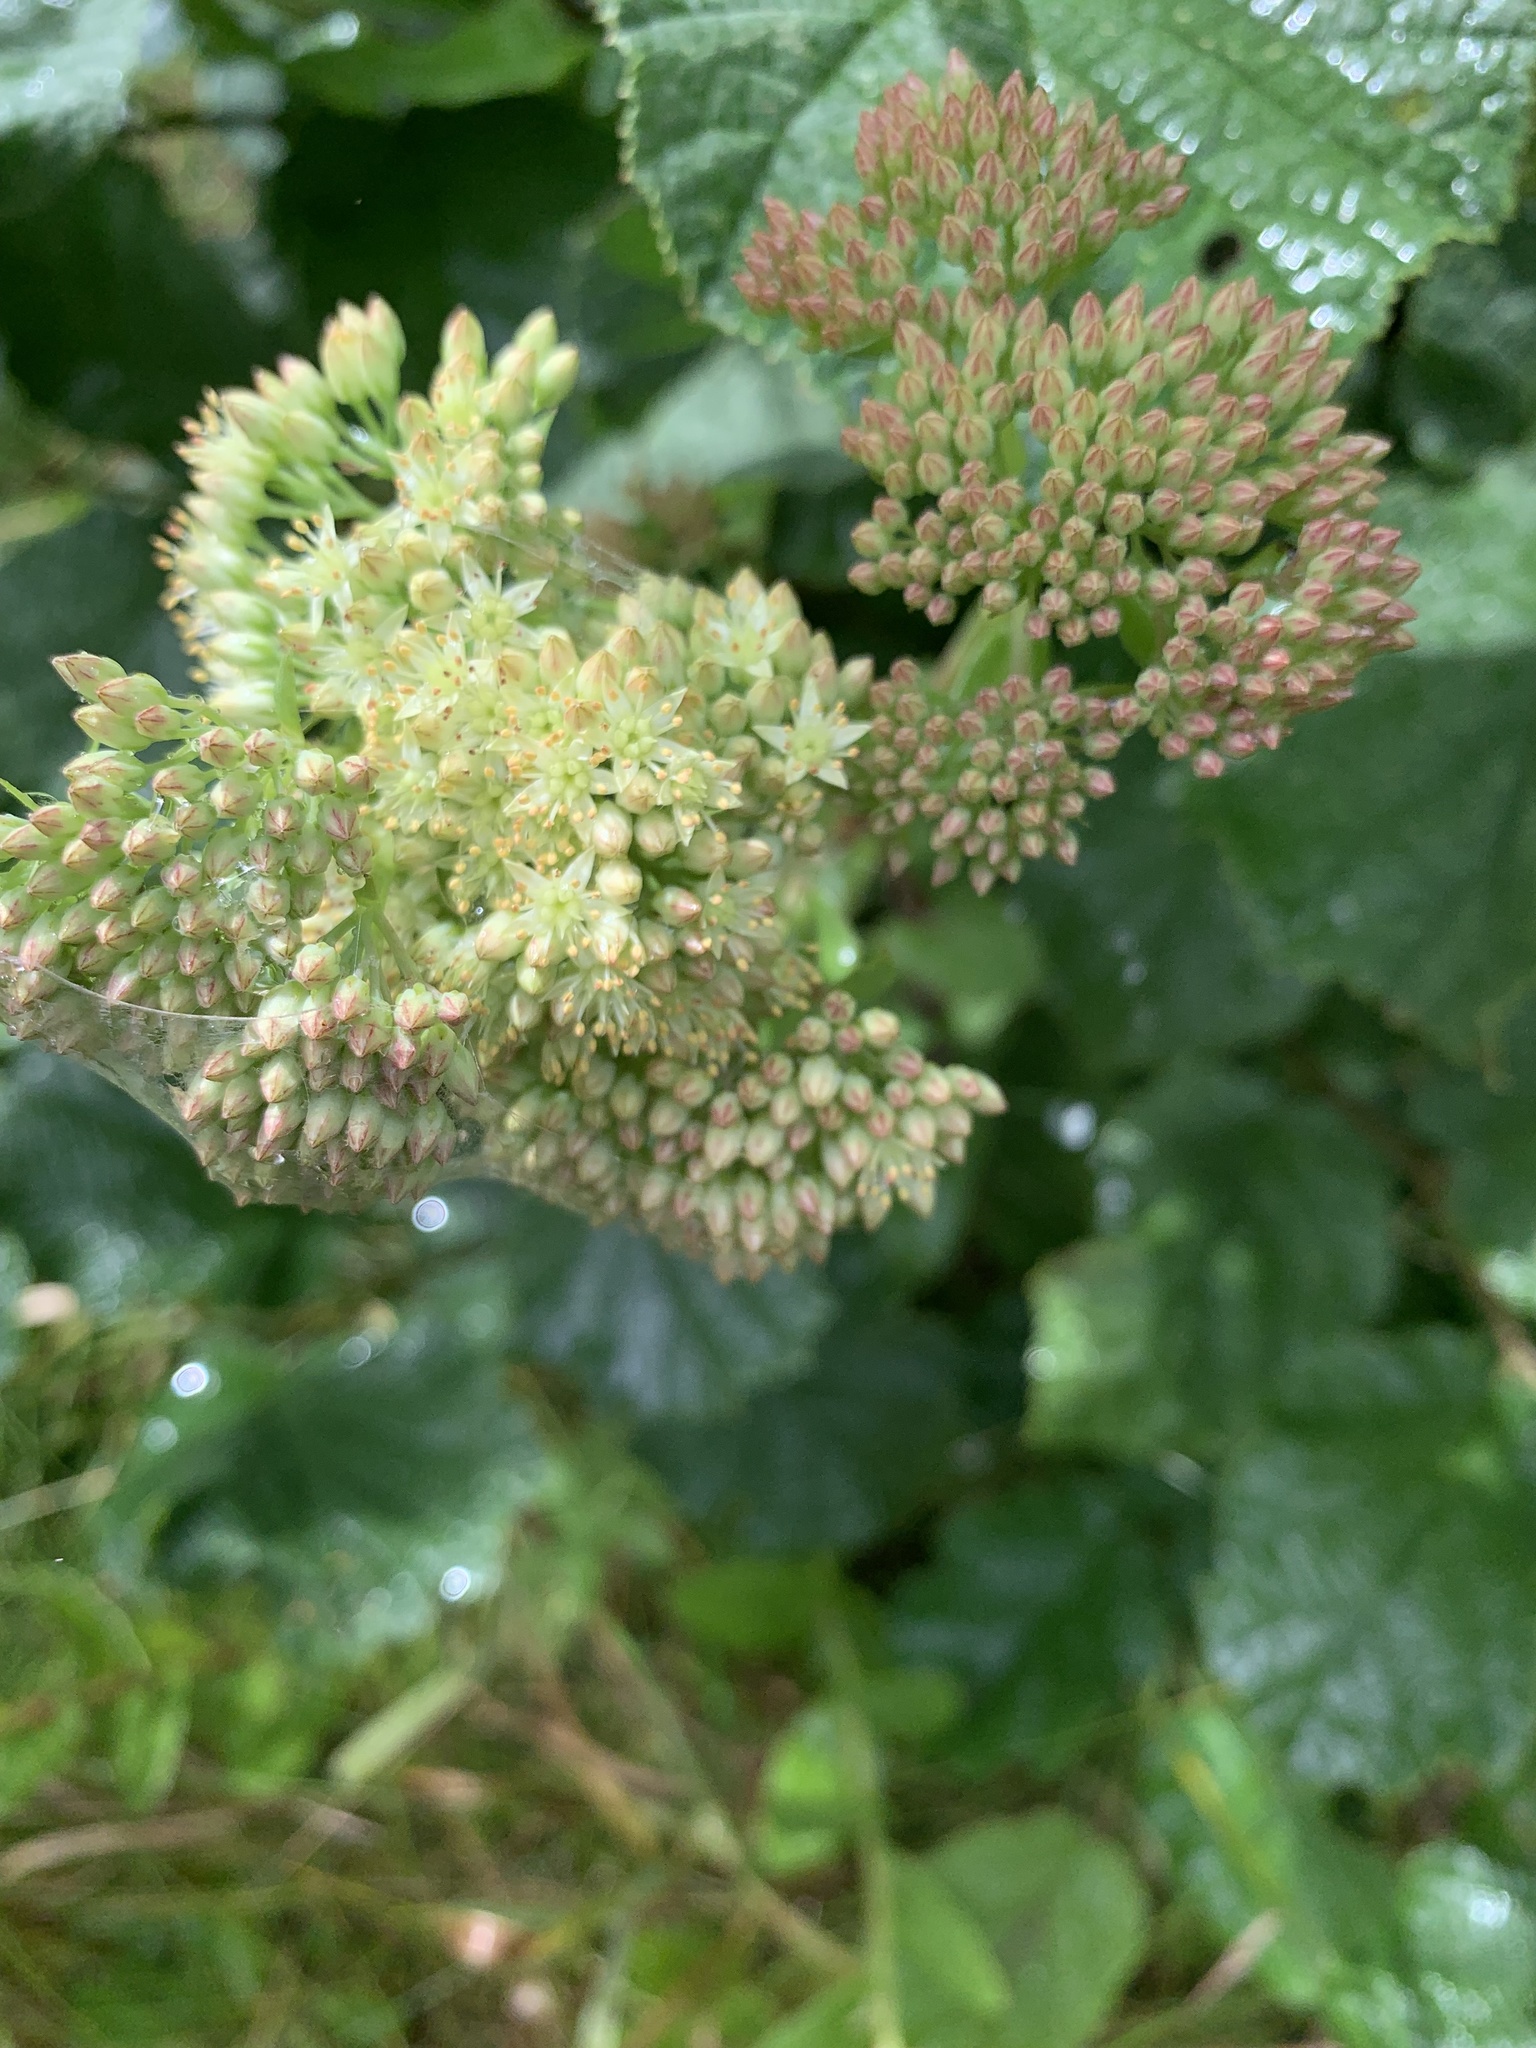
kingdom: Plantae
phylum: Tracheophyta
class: Magnoliopsida
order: Saxifragales
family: Crassulaceae
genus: Hylotelephium
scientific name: Hylotelephium maximum
